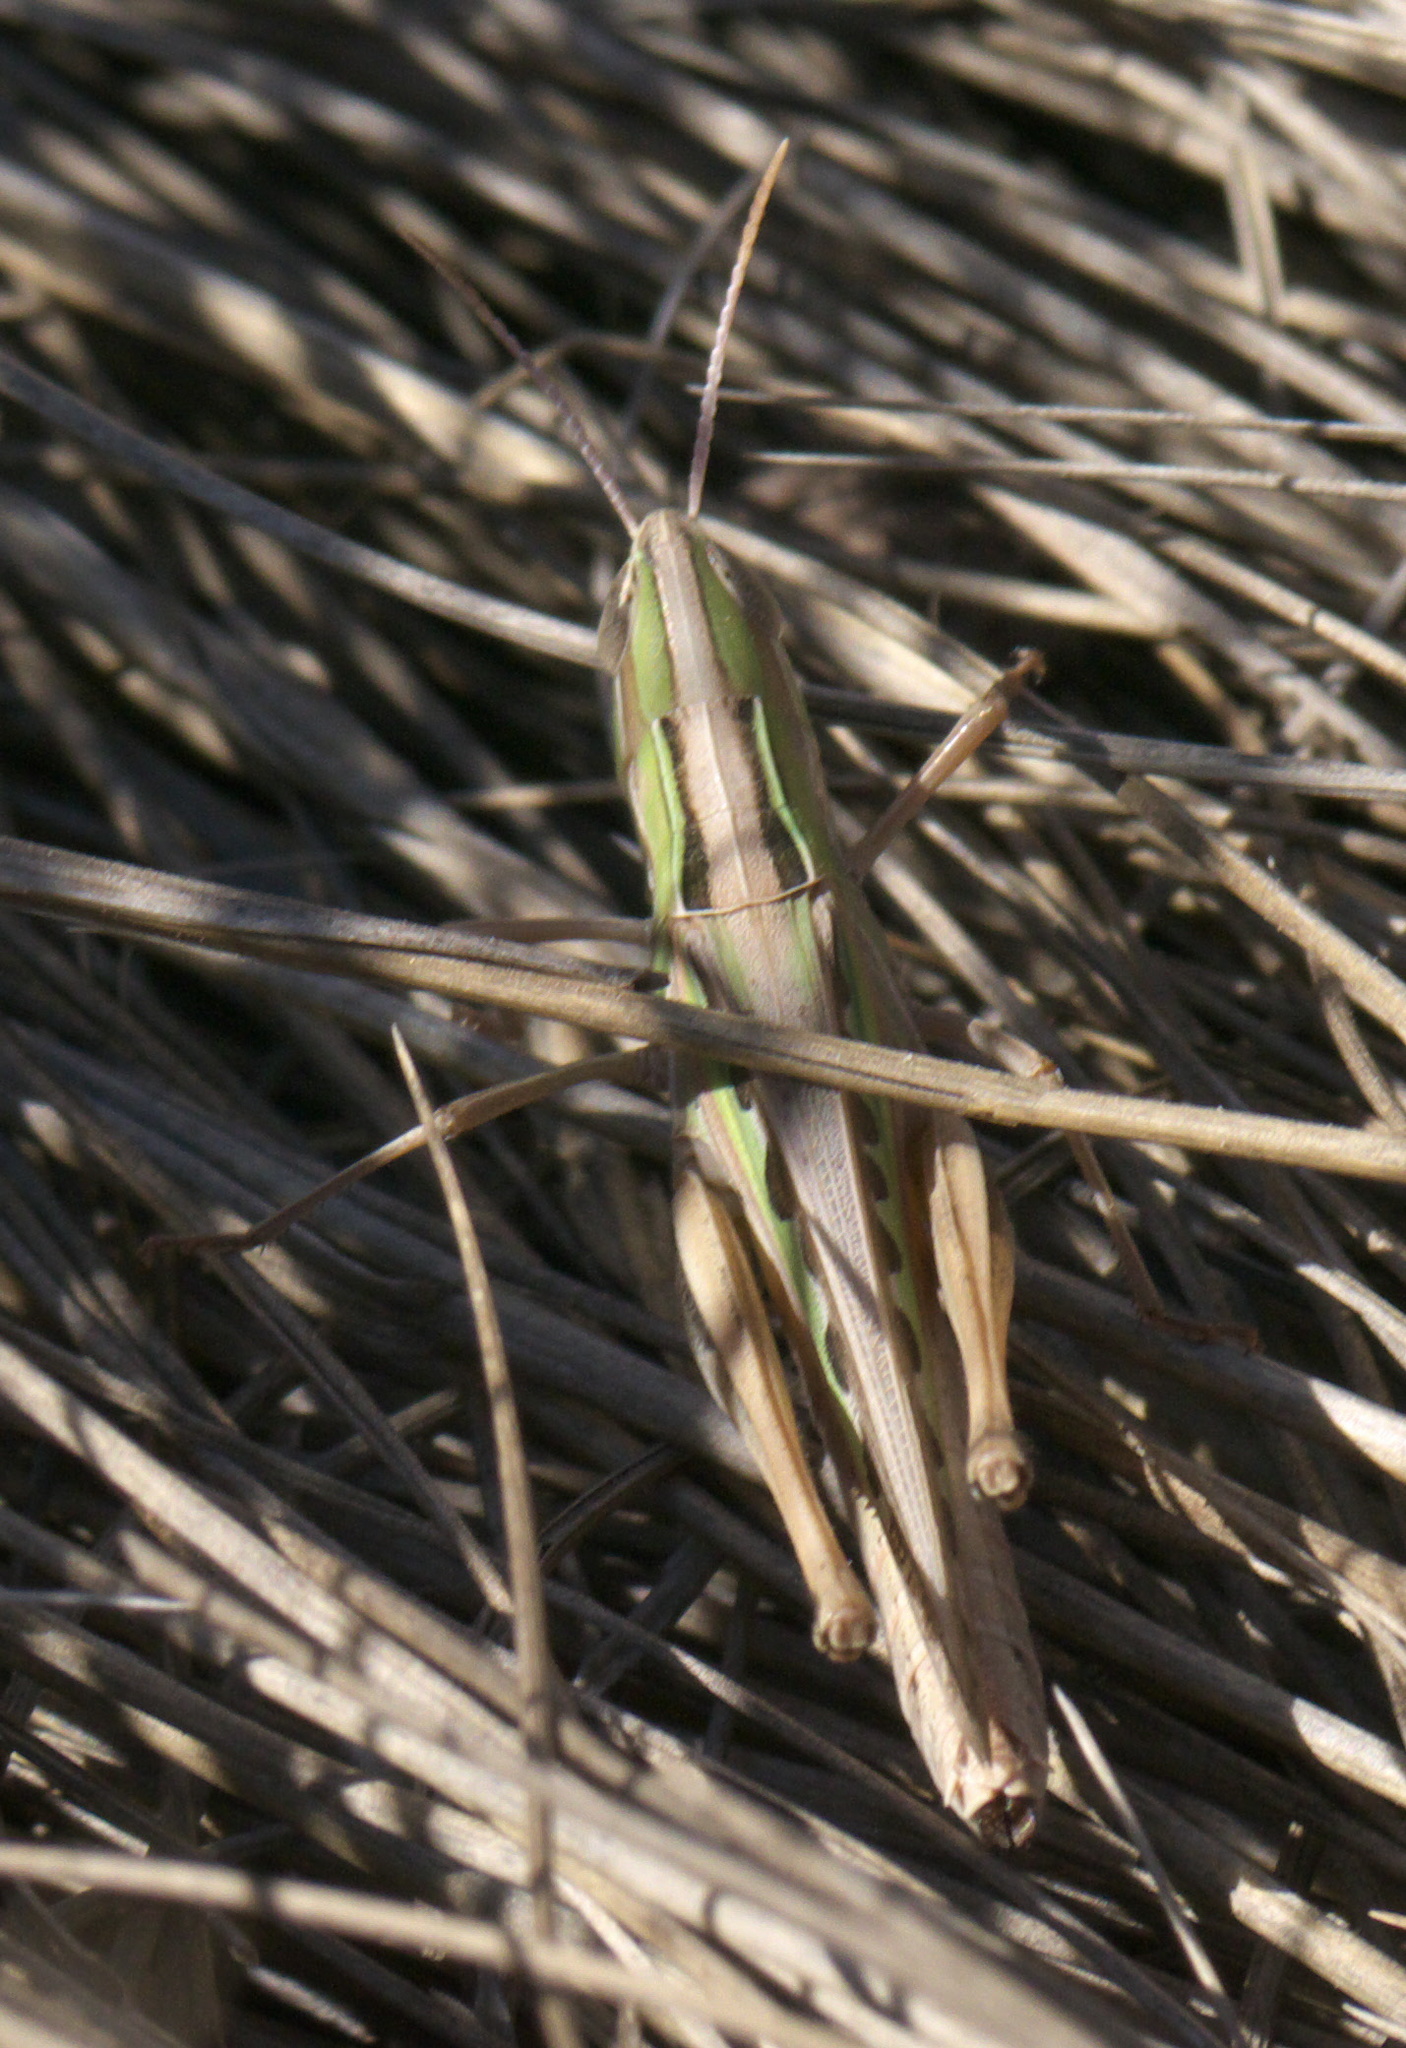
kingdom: Animalia
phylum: Arthropoda
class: Insecta
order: Orthoptera
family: Acrididae
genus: Syrbula
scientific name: Syrbula admirabilis
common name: Handsome grasshopper
